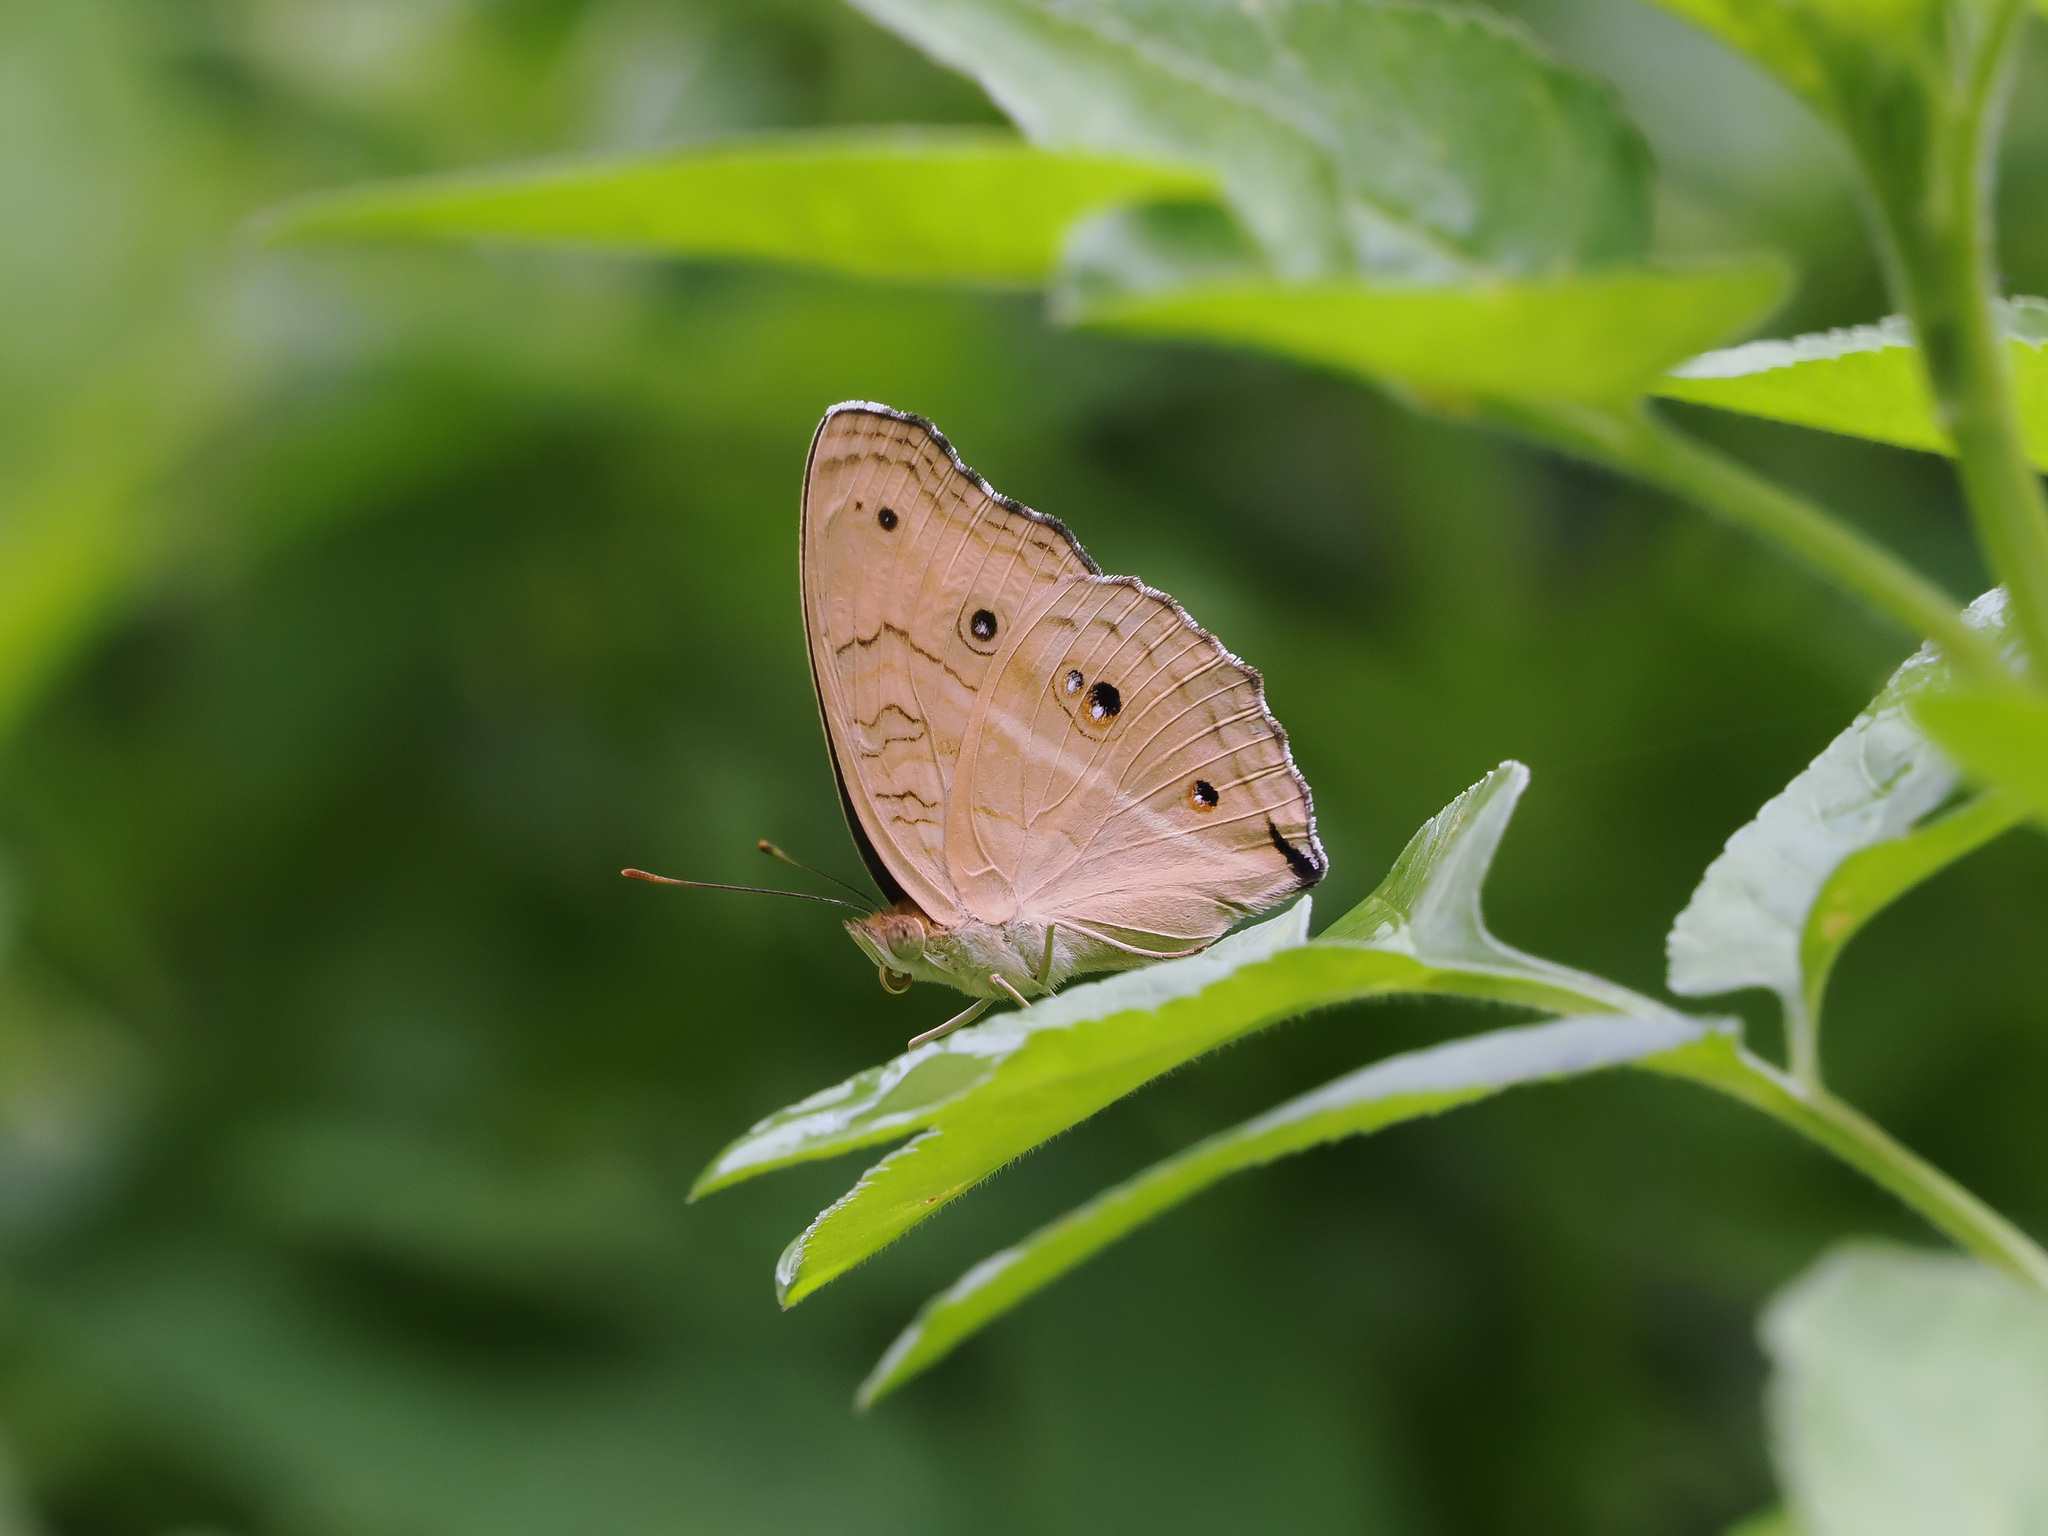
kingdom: Animalia
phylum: Arthropoda
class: Insecta
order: Lepidoptera
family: Nymphalidae
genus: Junonia
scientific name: Junonia almana
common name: Peacock pansy
